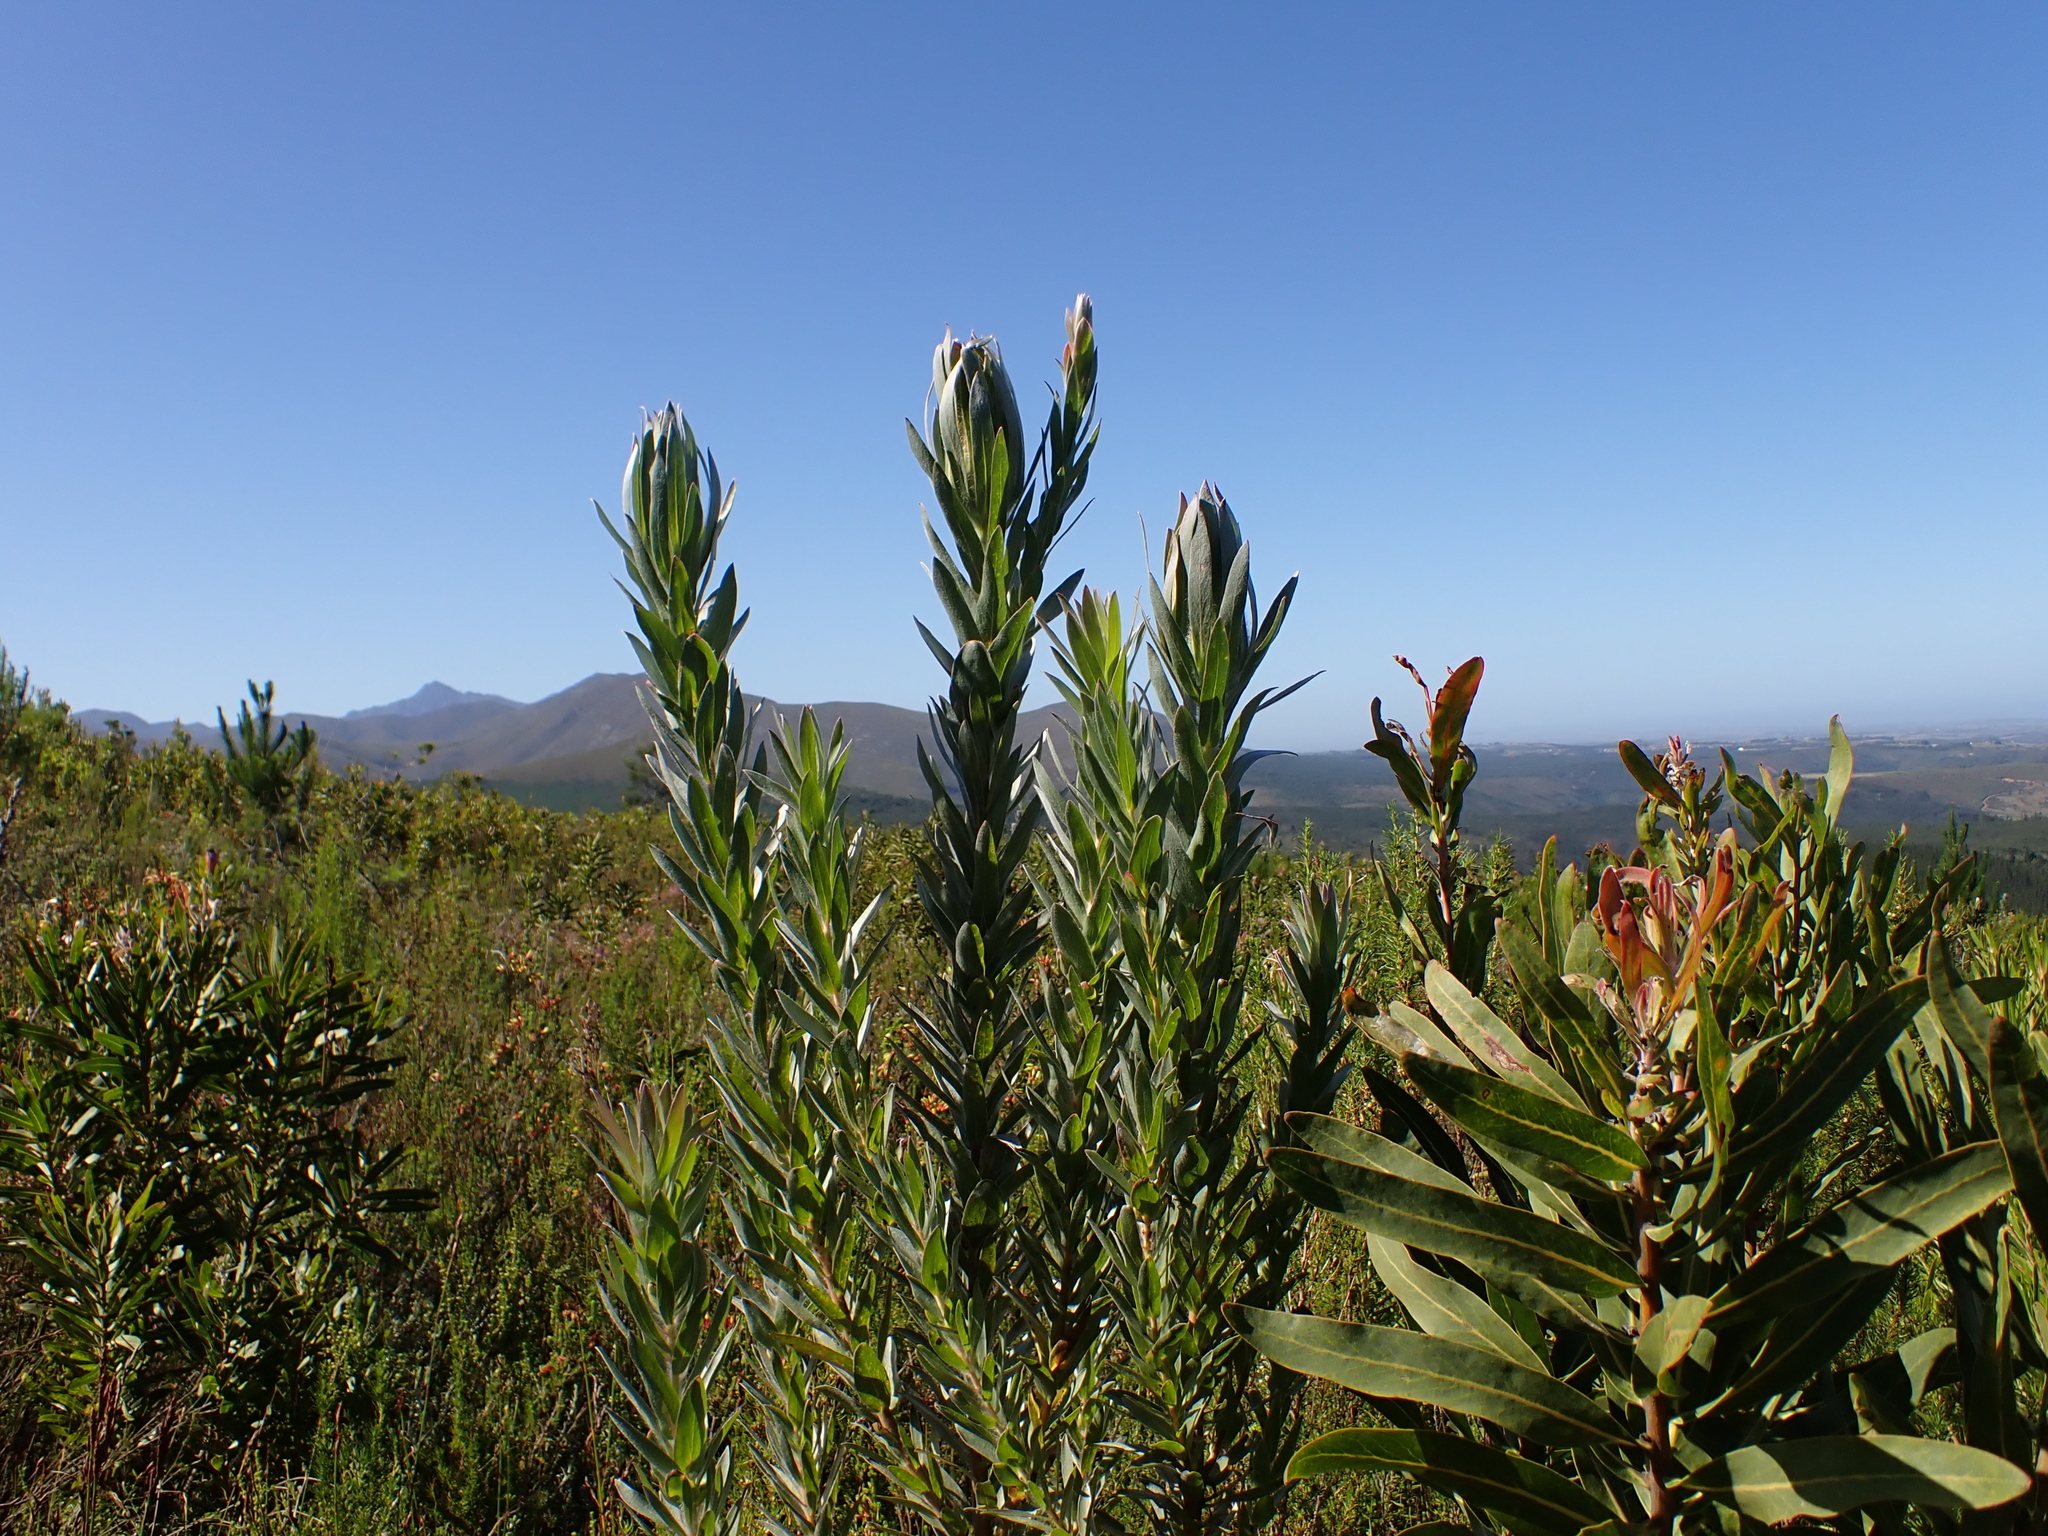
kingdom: Plantae
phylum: Tracheophyta
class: Magnoliopsida
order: Proteales
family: Proteaceae
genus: Protea
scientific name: Protea coronata
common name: Green sugarbush
